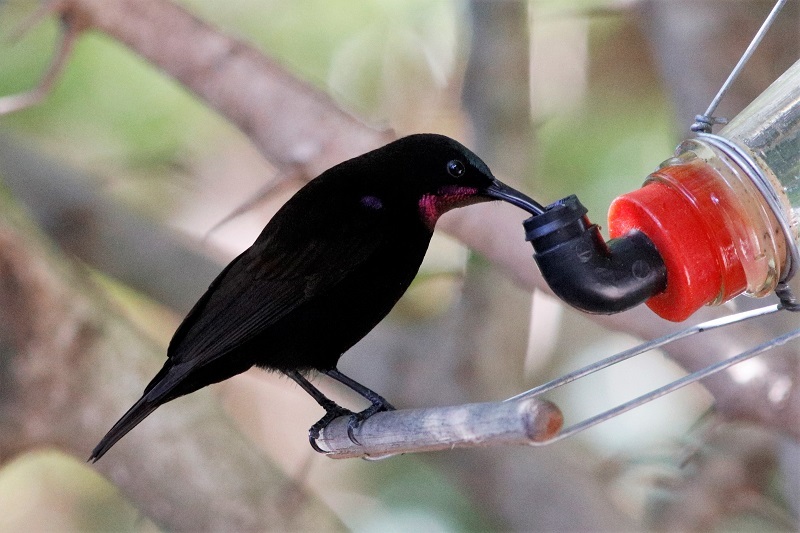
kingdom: Animalia
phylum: Chordata
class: Aves
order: Passeriformes
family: Nectariniidae
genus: Chalcomitra
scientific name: Chalcomitra amethystina
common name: Amethyst sunbird
